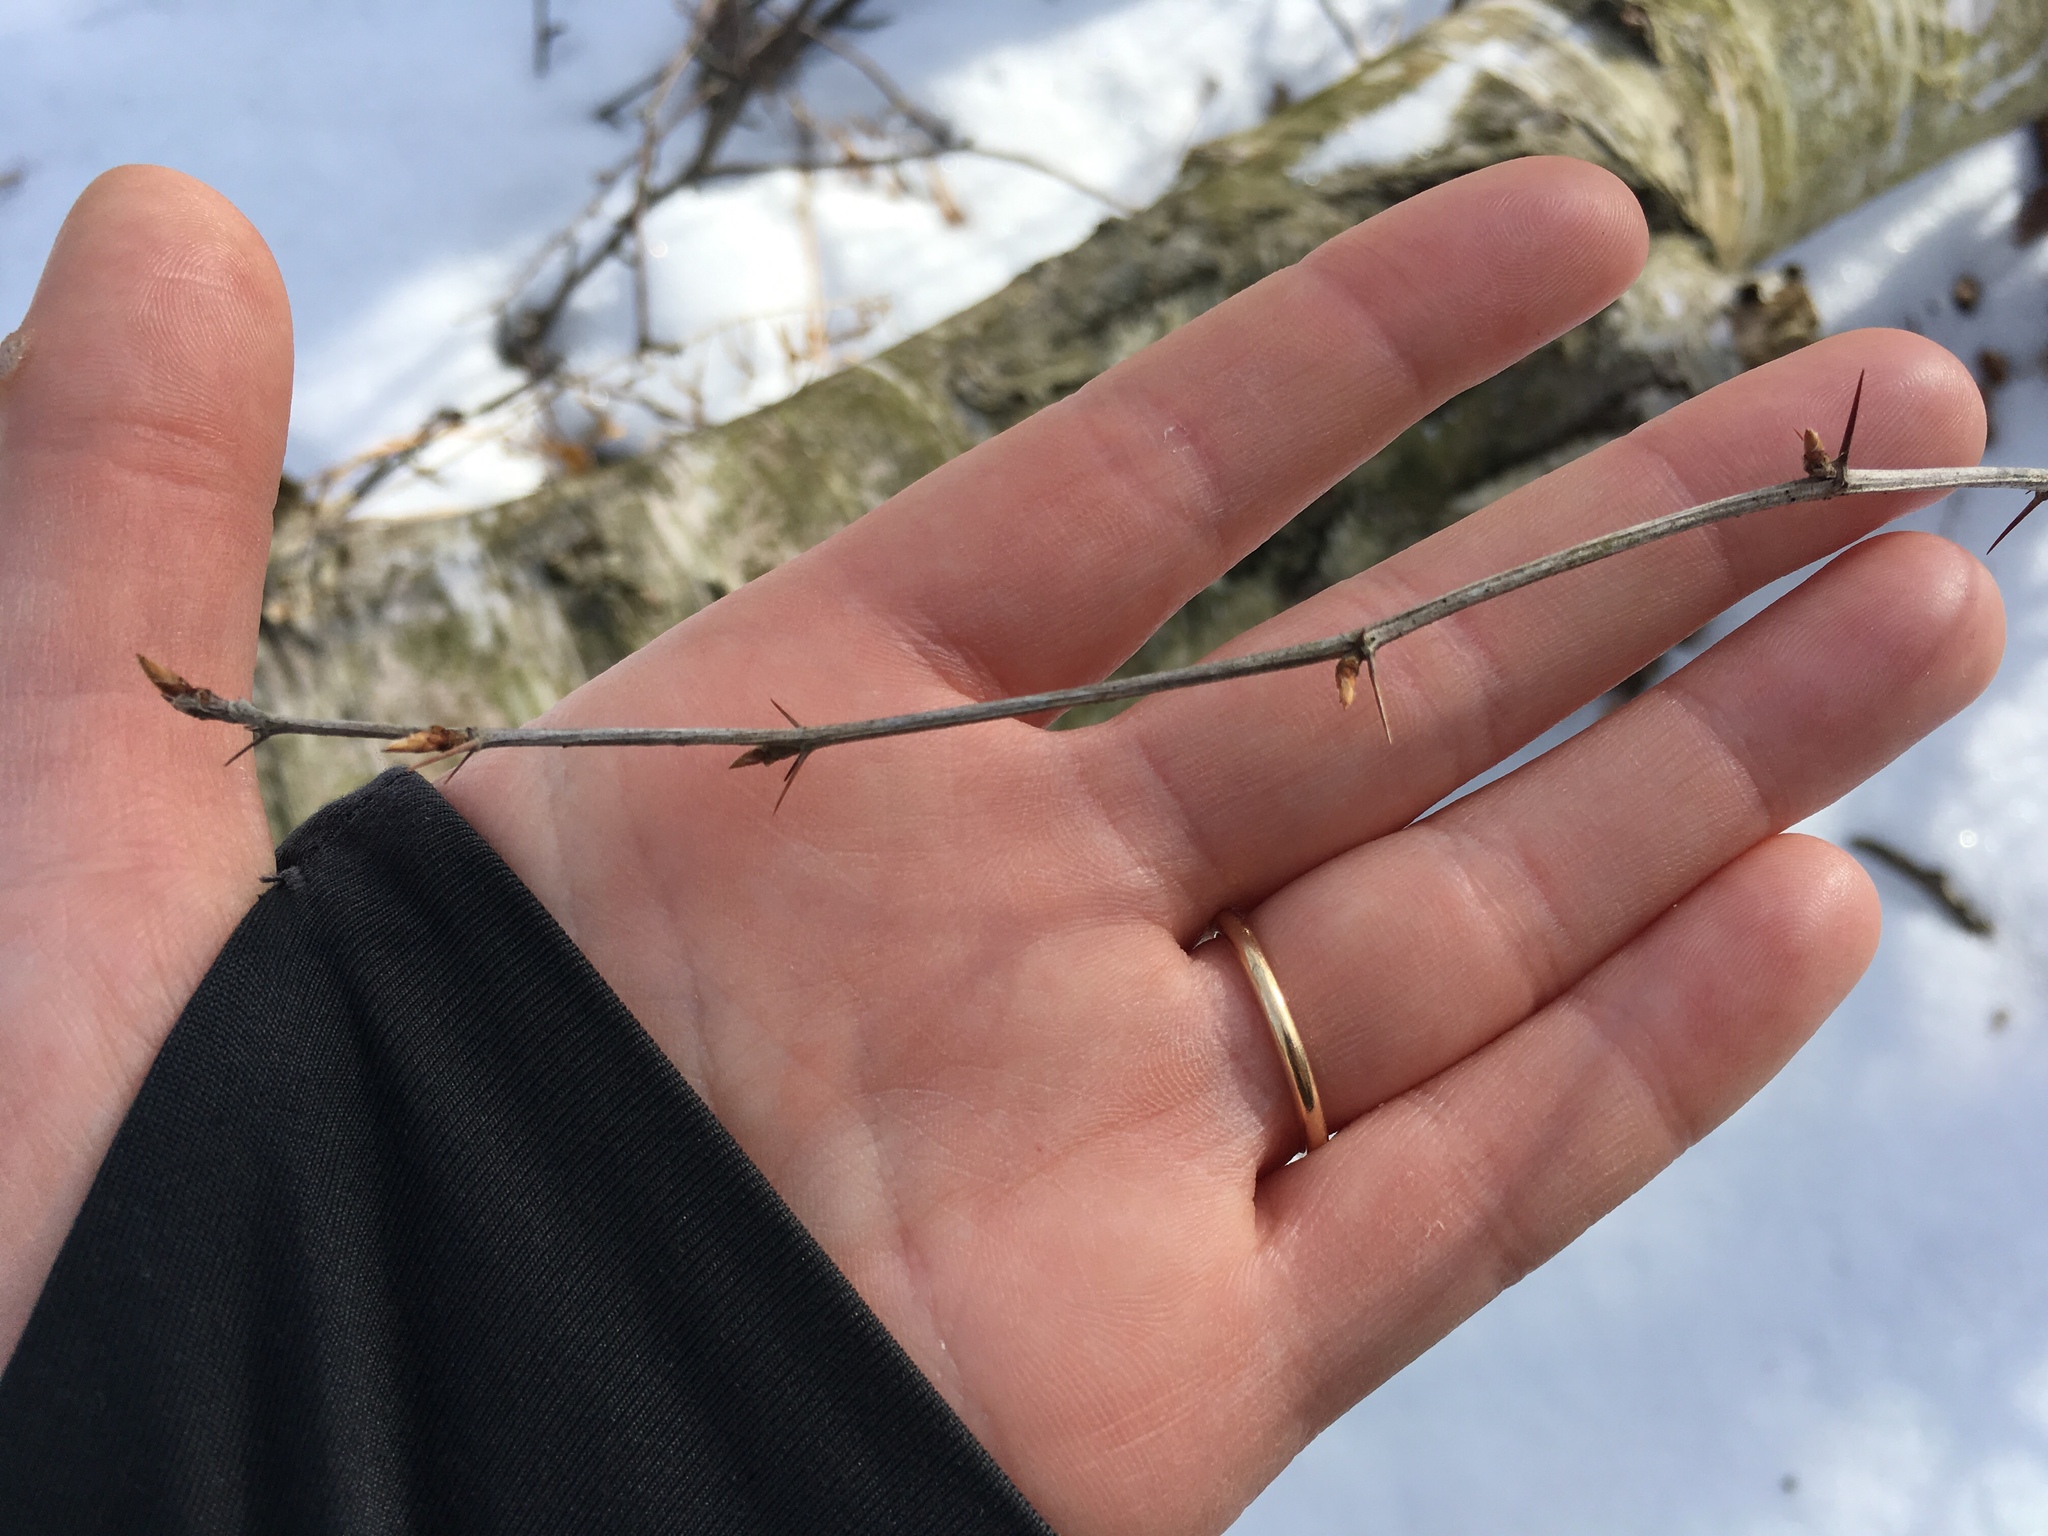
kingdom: Plantae
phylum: Tracheophyta
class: Magnoliopsida
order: Ranunculales
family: Berberidaceae
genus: Berberis
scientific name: Berberis thunbergii
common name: Japanese barberry
